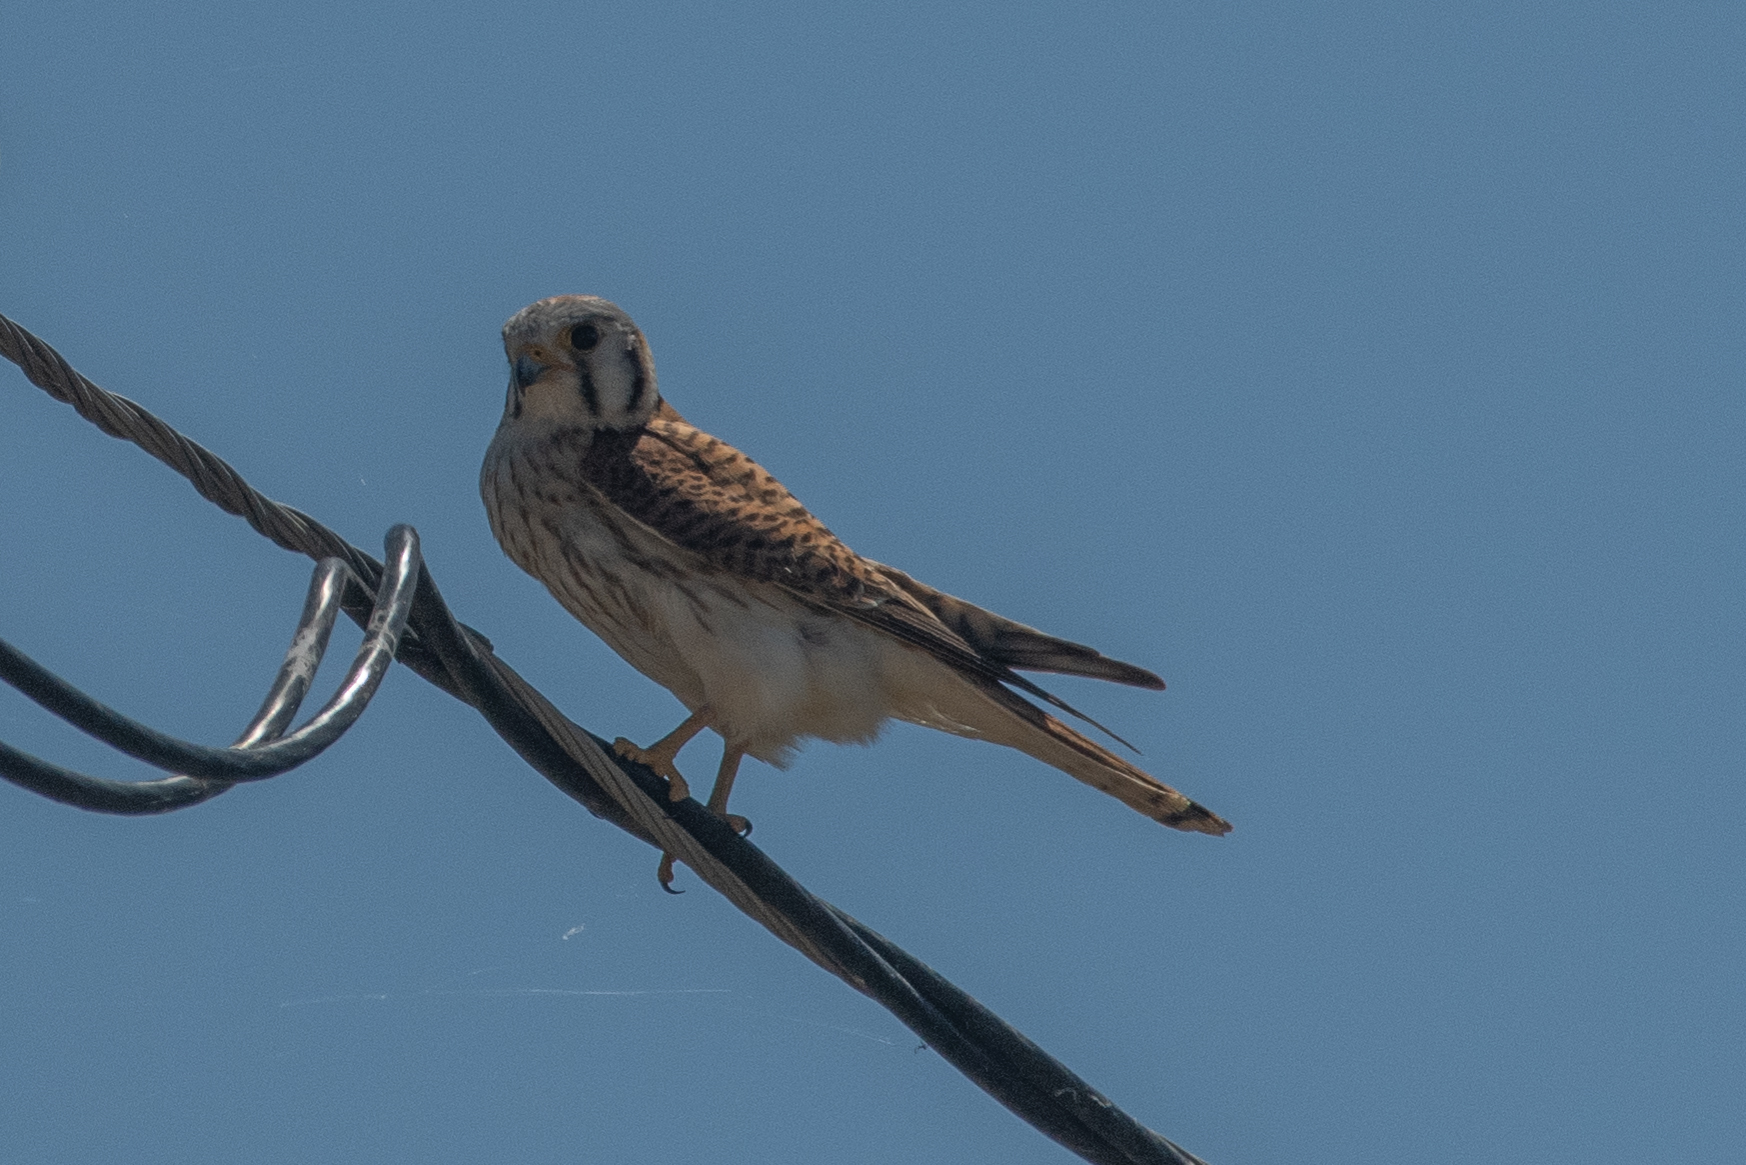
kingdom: Animalia
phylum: Chordata
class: Aves
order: Falconiformes
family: Falconidae
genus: Falco
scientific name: Falco sparverius
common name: American kestrel
